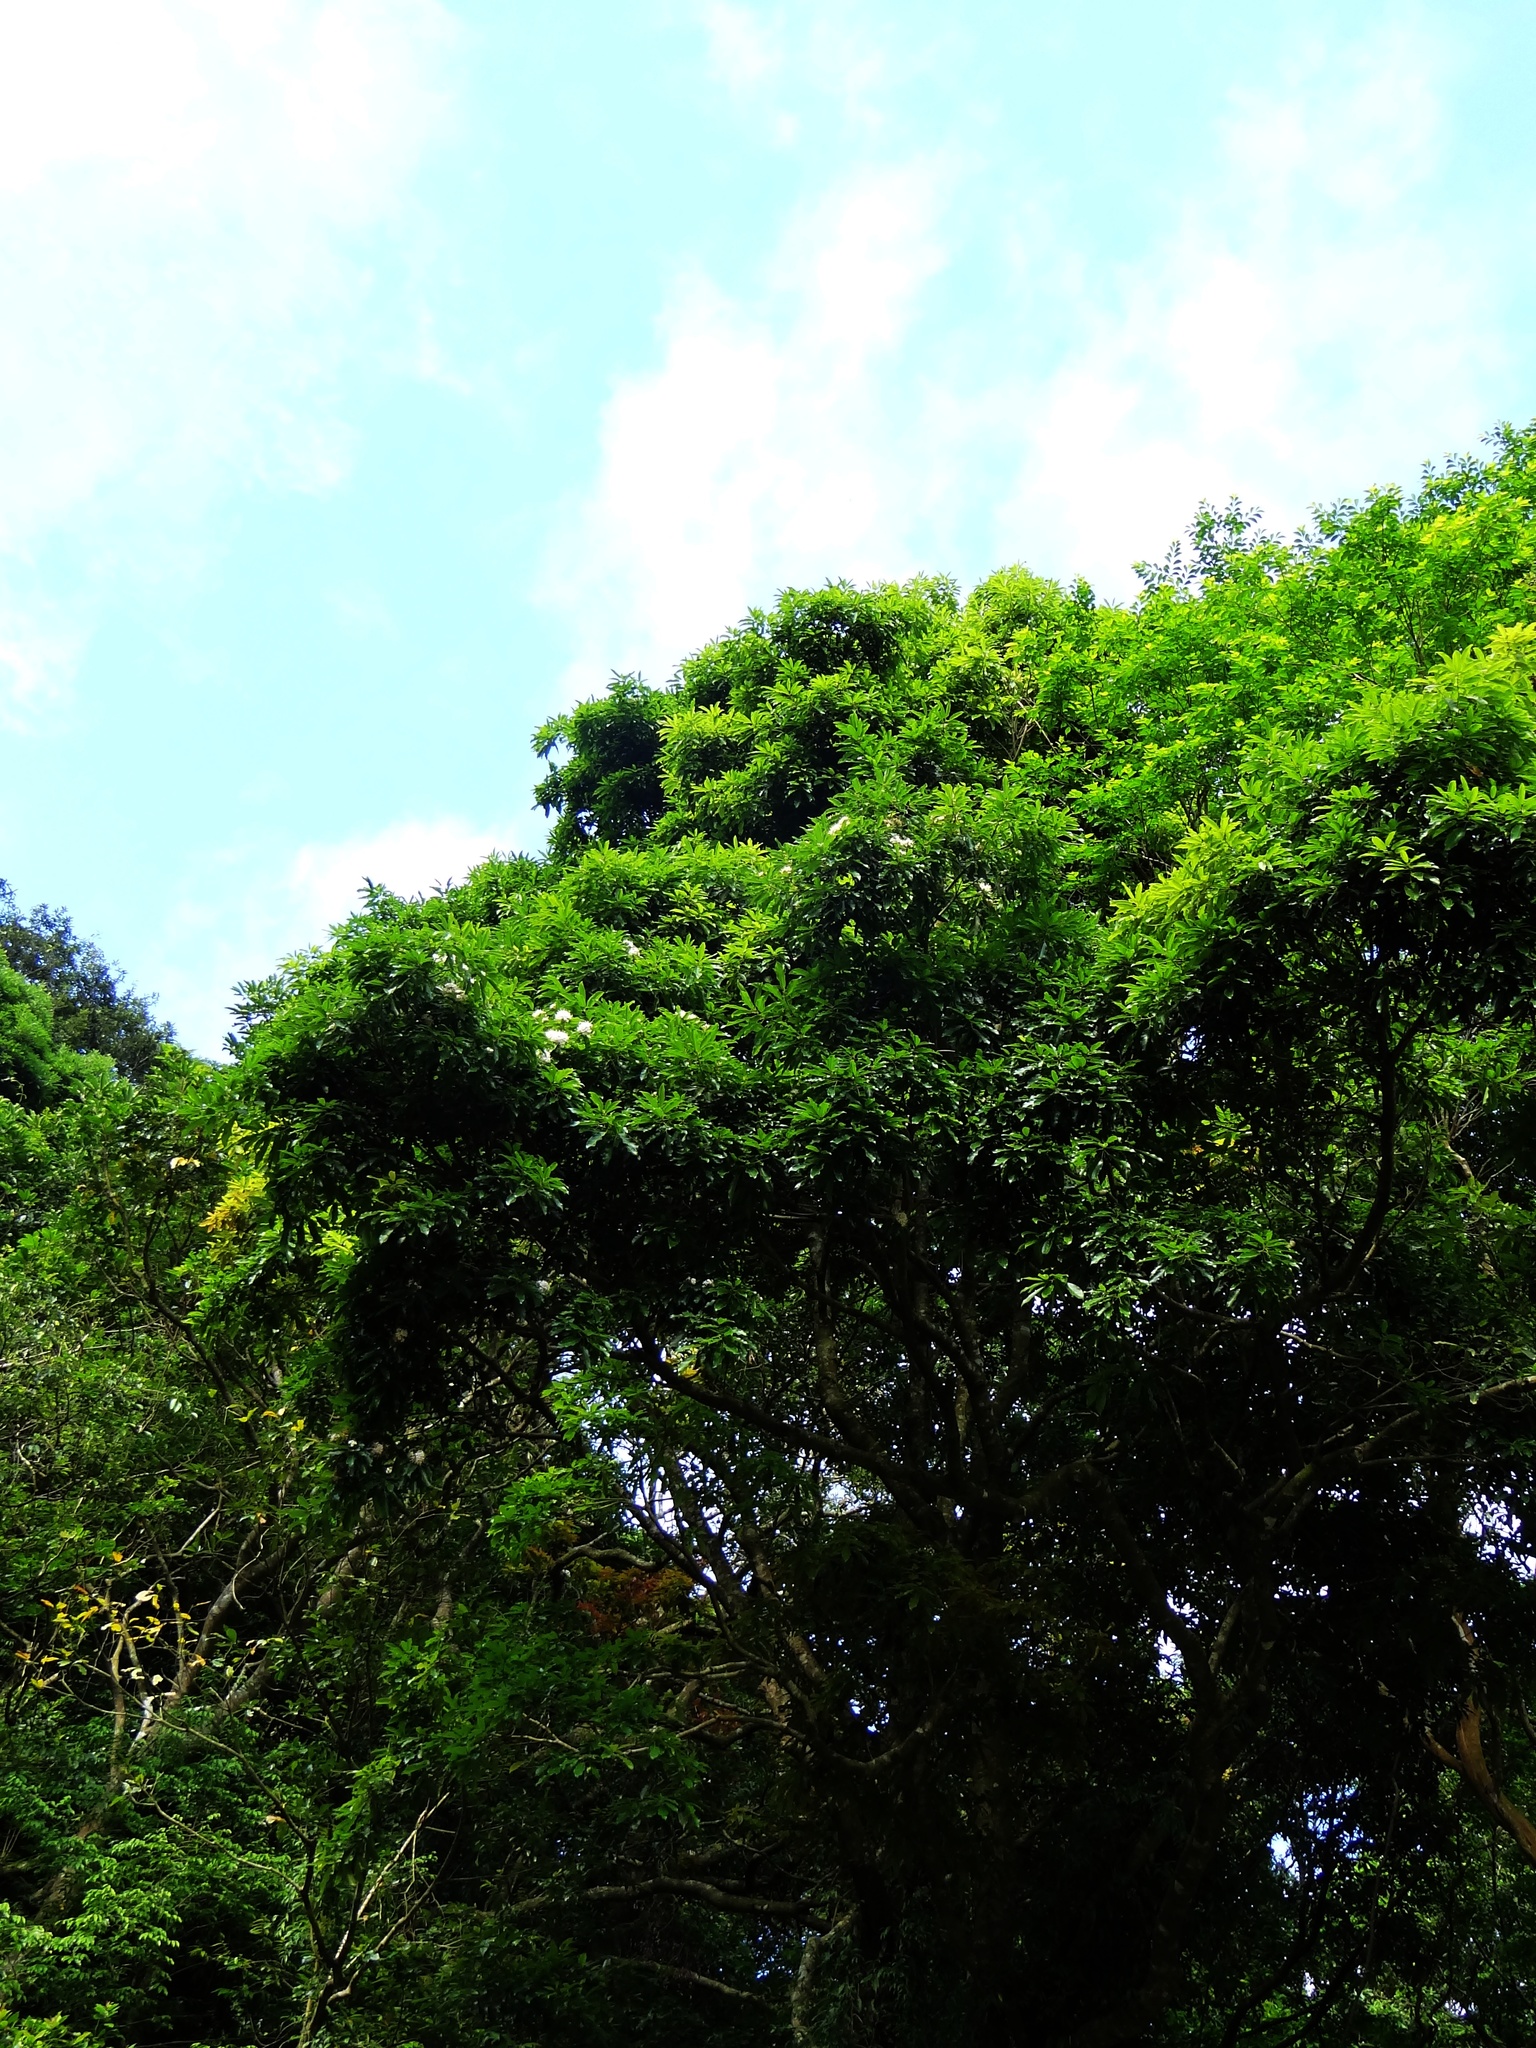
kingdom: Plantae
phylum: Tracheophyta
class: Magnoliopsida
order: Malvales
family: Malvaceae
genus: Reevesia
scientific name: Reevesia thyrsoidea
